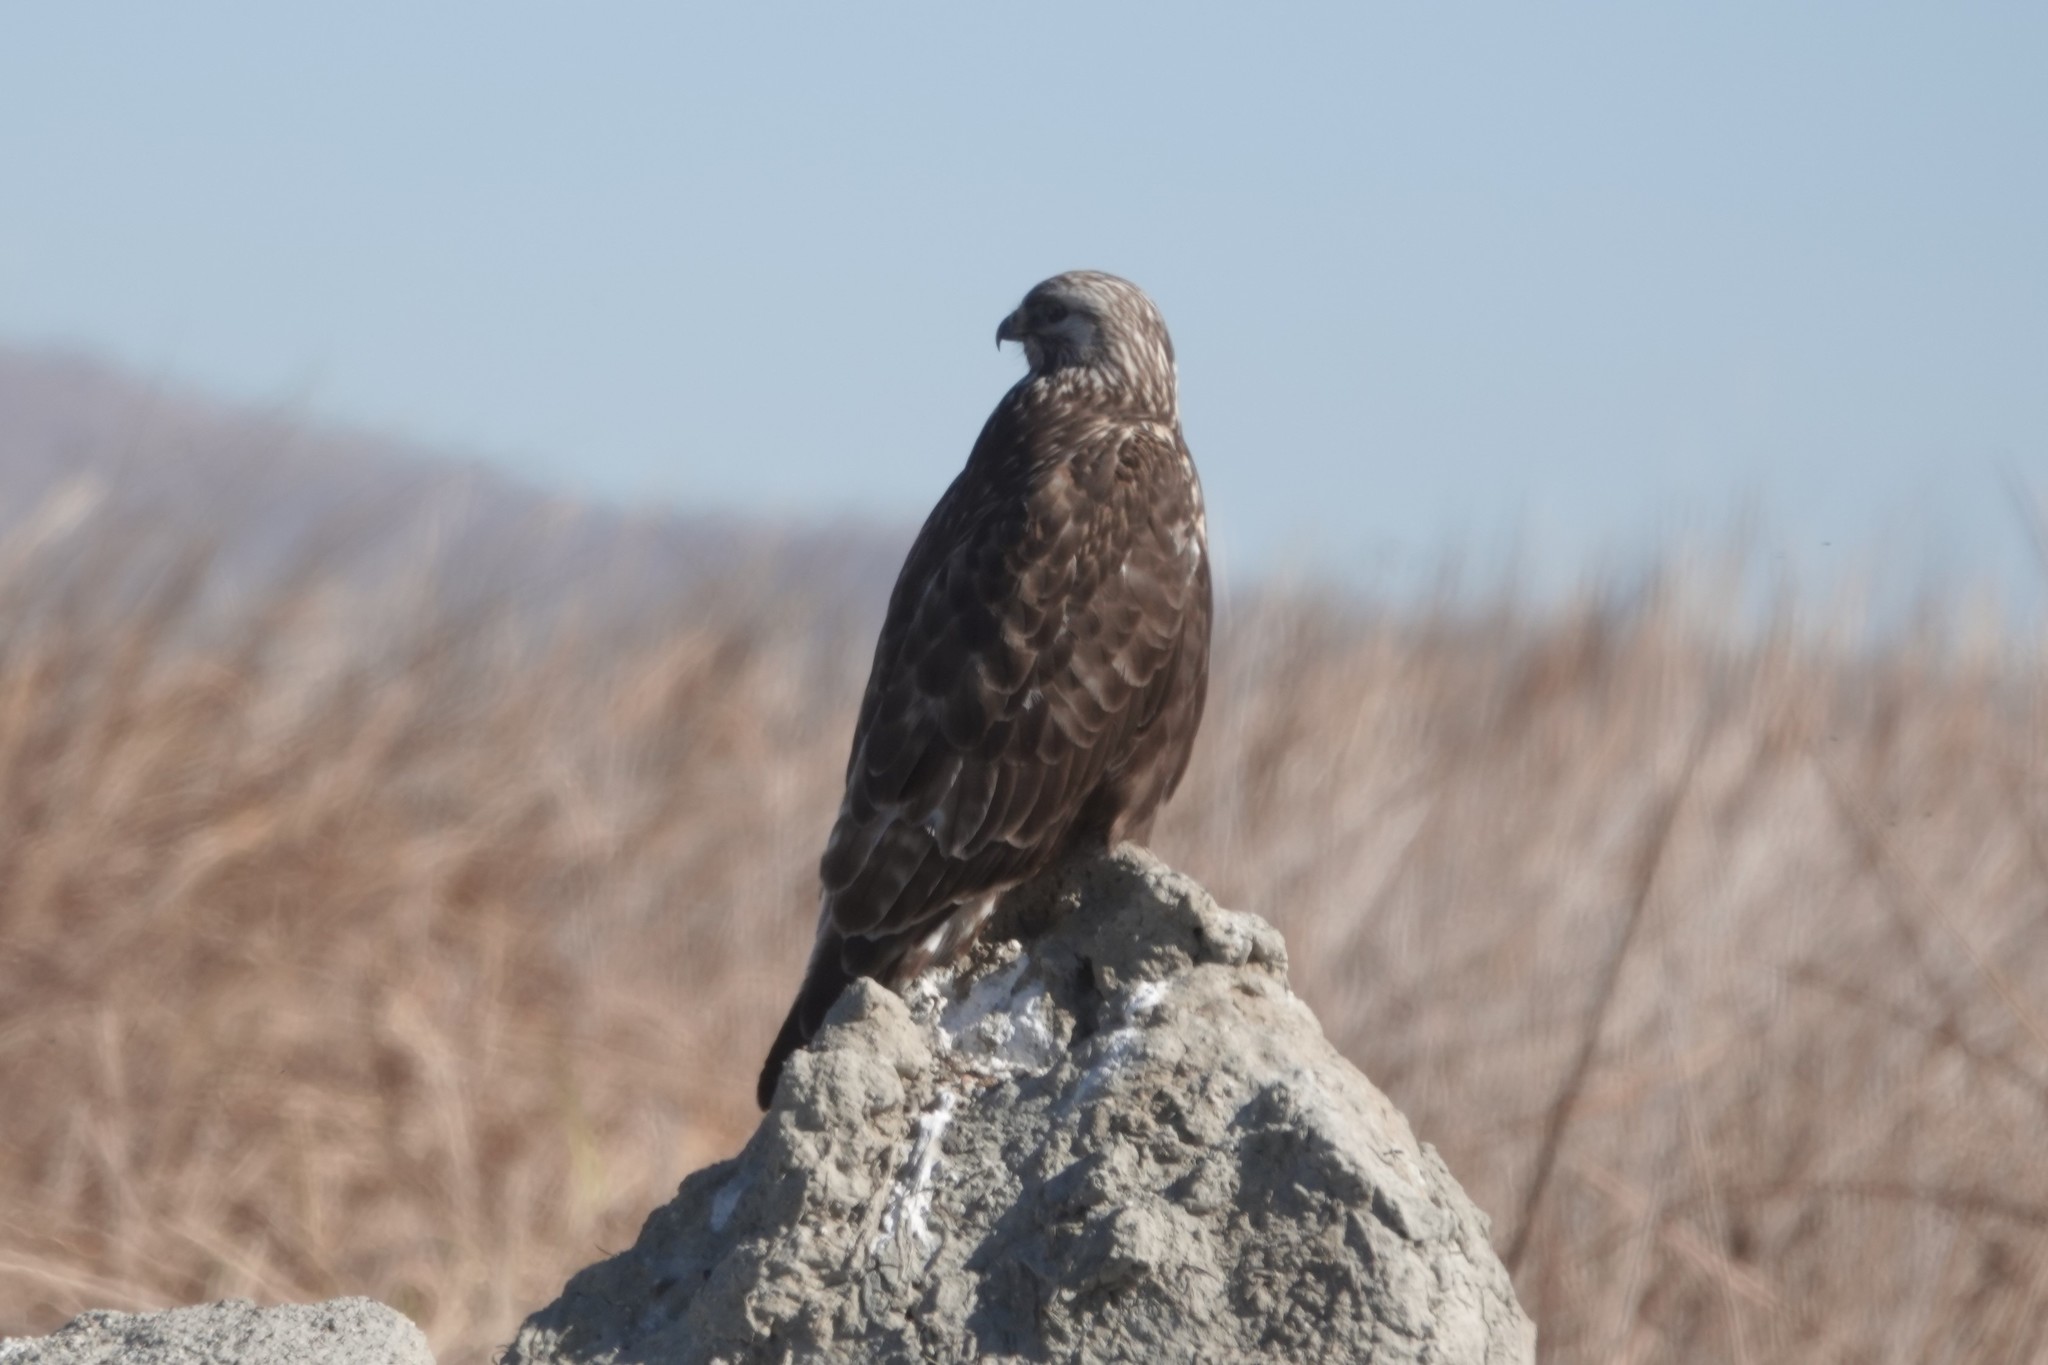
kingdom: Animalia
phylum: Chordata
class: Aves
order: Accipitriformes
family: Accipitridae
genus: Buteo
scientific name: Buteo lagopus
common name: Rough-legged buzzard
